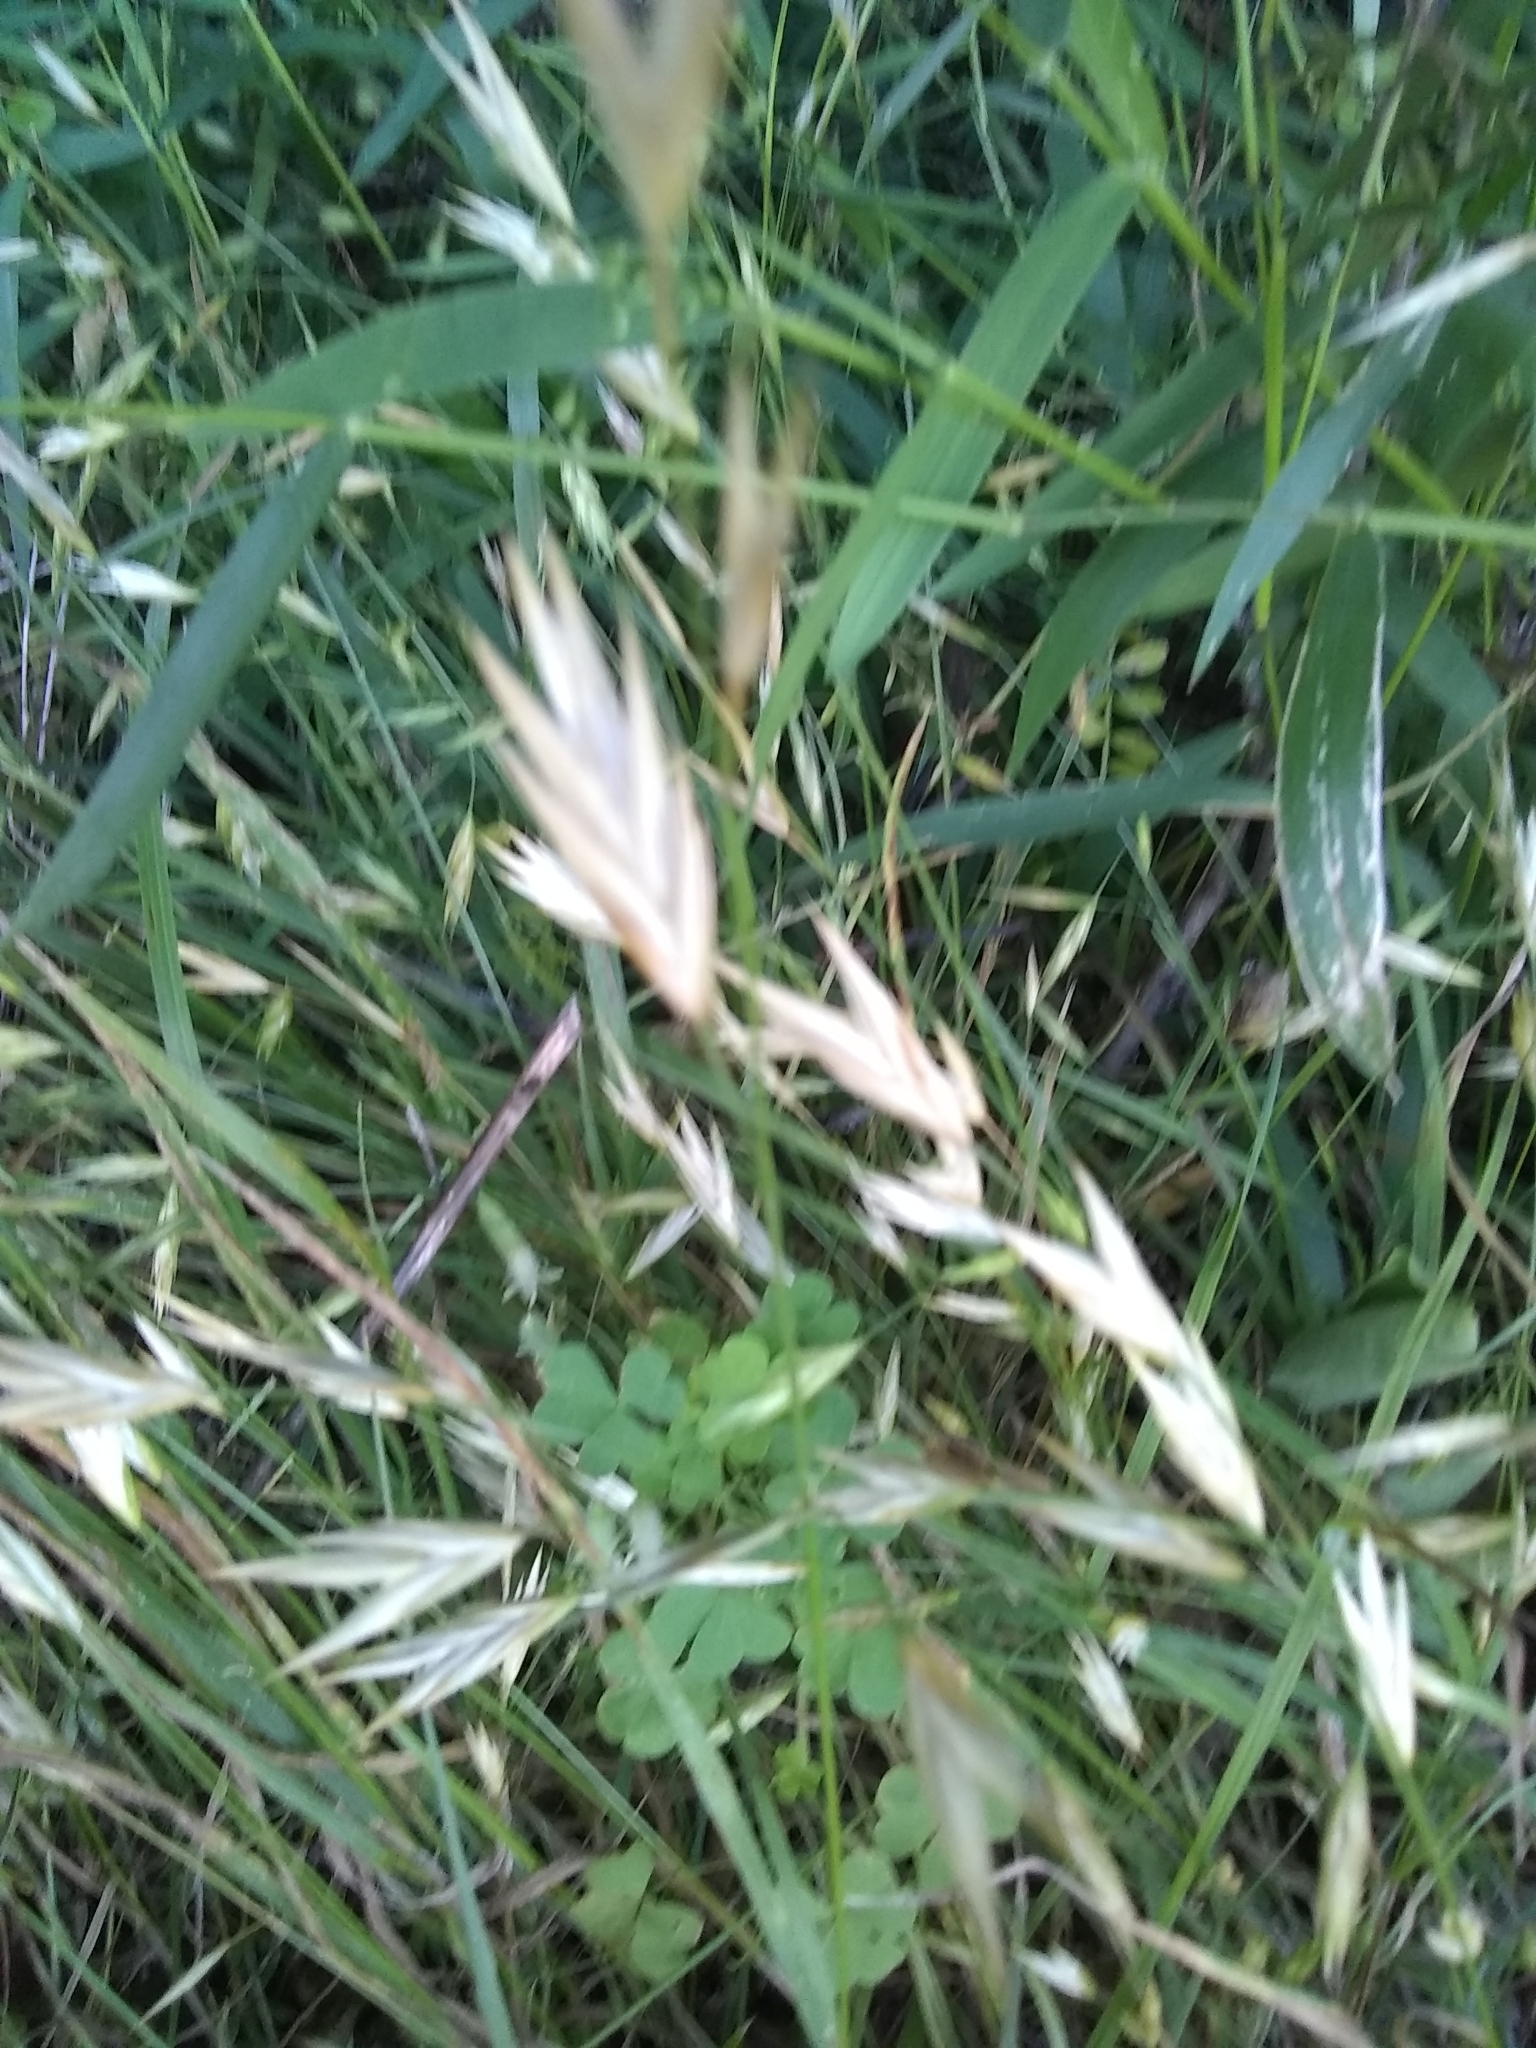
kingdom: Plantae
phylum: Tracheophyta
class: Liliopsida
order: Poales
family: Poaceae
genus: Bromus
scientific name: Bromus catharticus
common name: Rescuegrass
